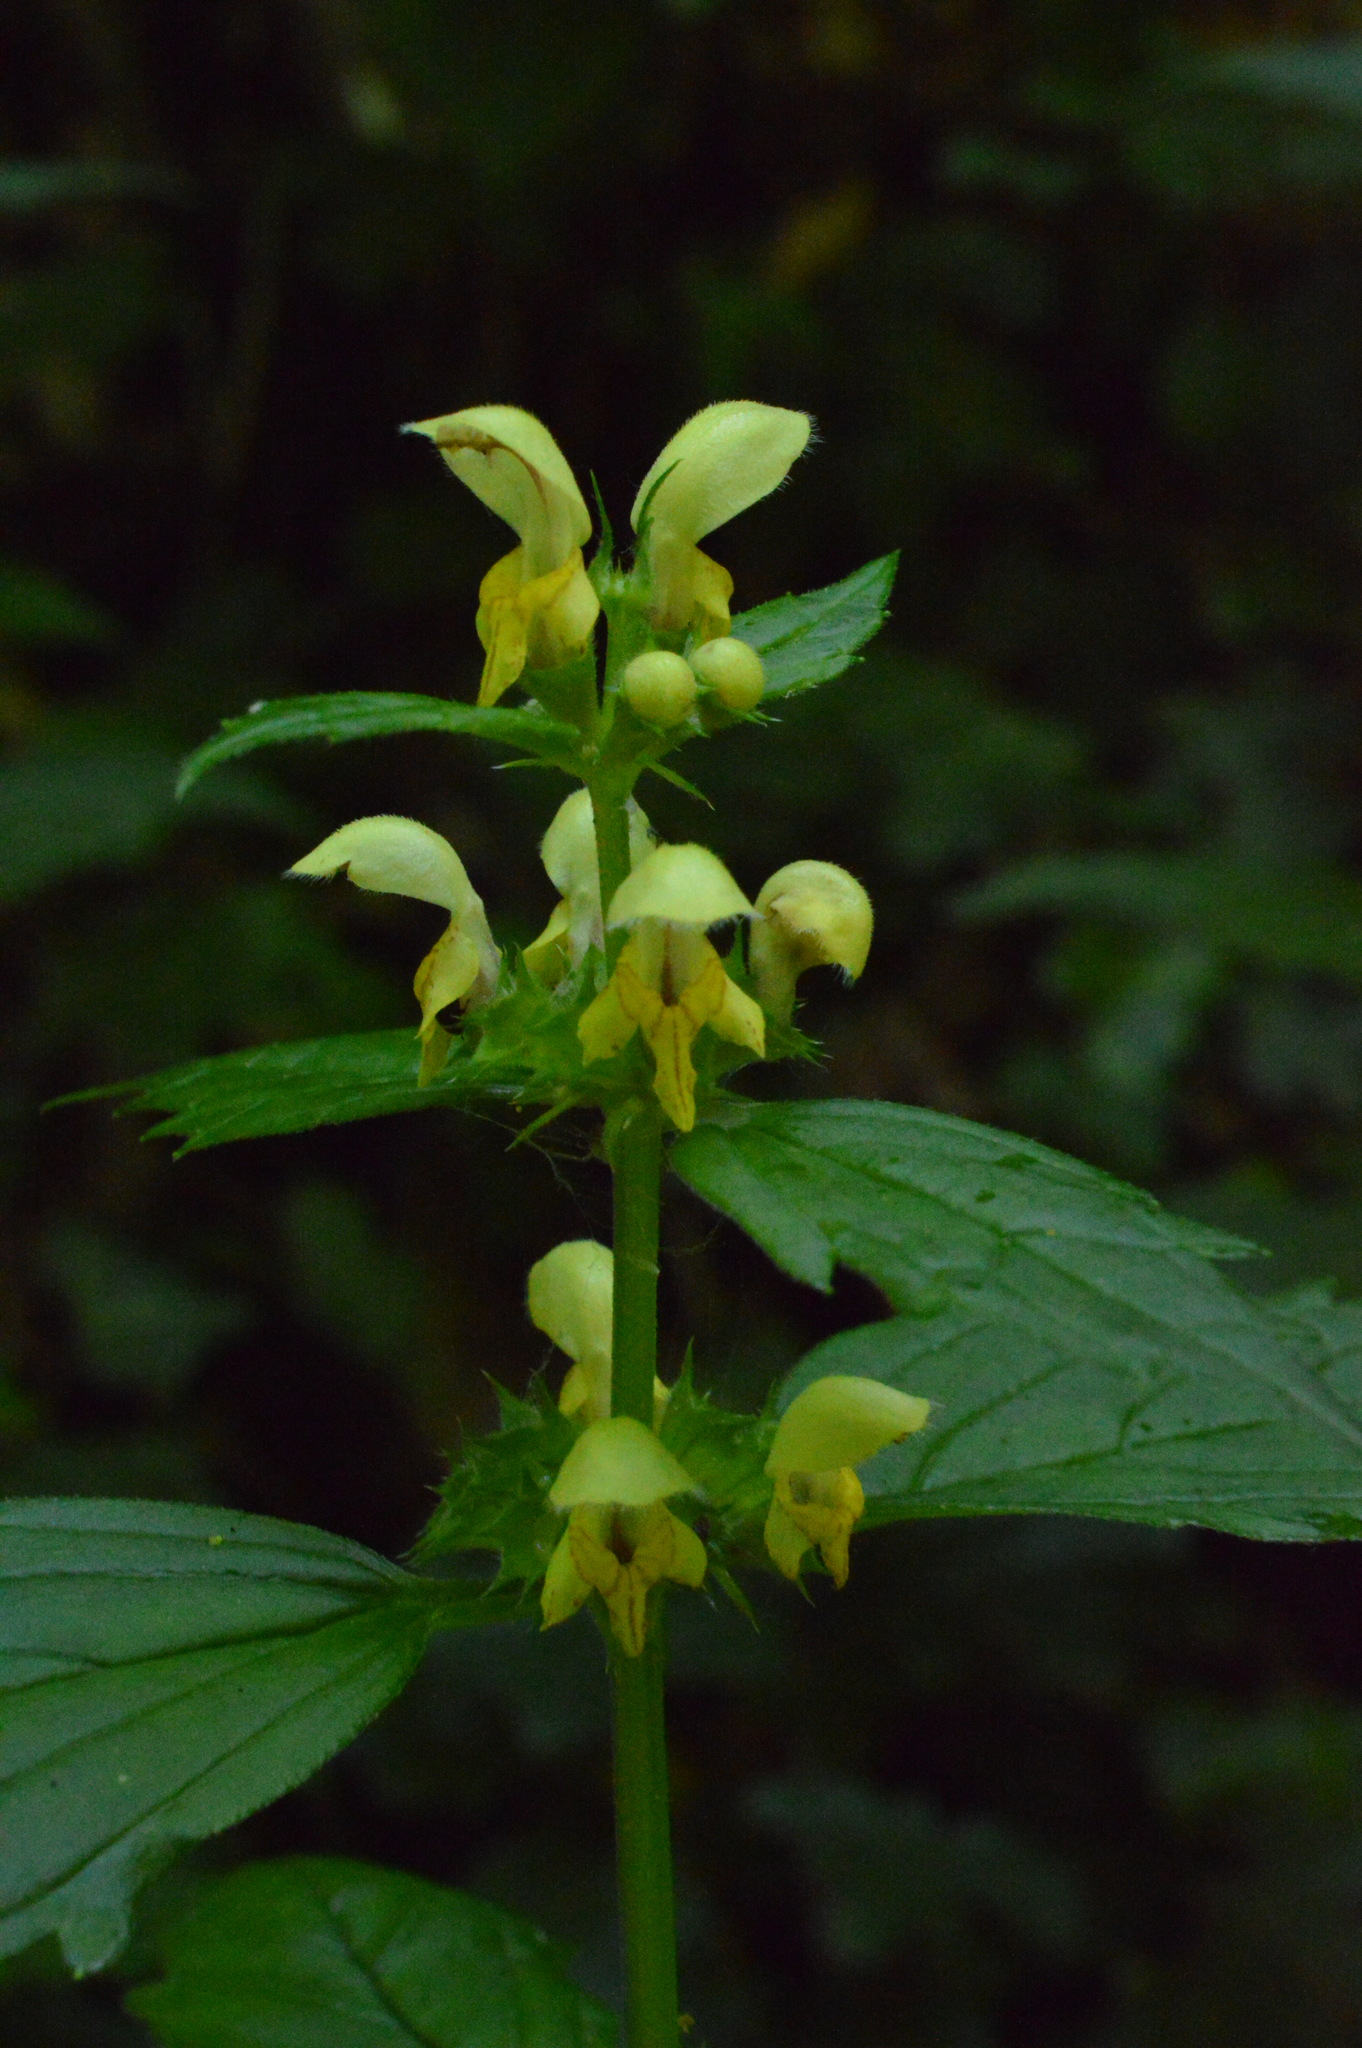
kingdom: Plantae
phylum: Tracheophyta
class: Magnoliopsida
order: Lamiales
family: Lamiaceae
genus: Lamium
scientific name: Lamium galeobdolon
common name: Yellow archangel
